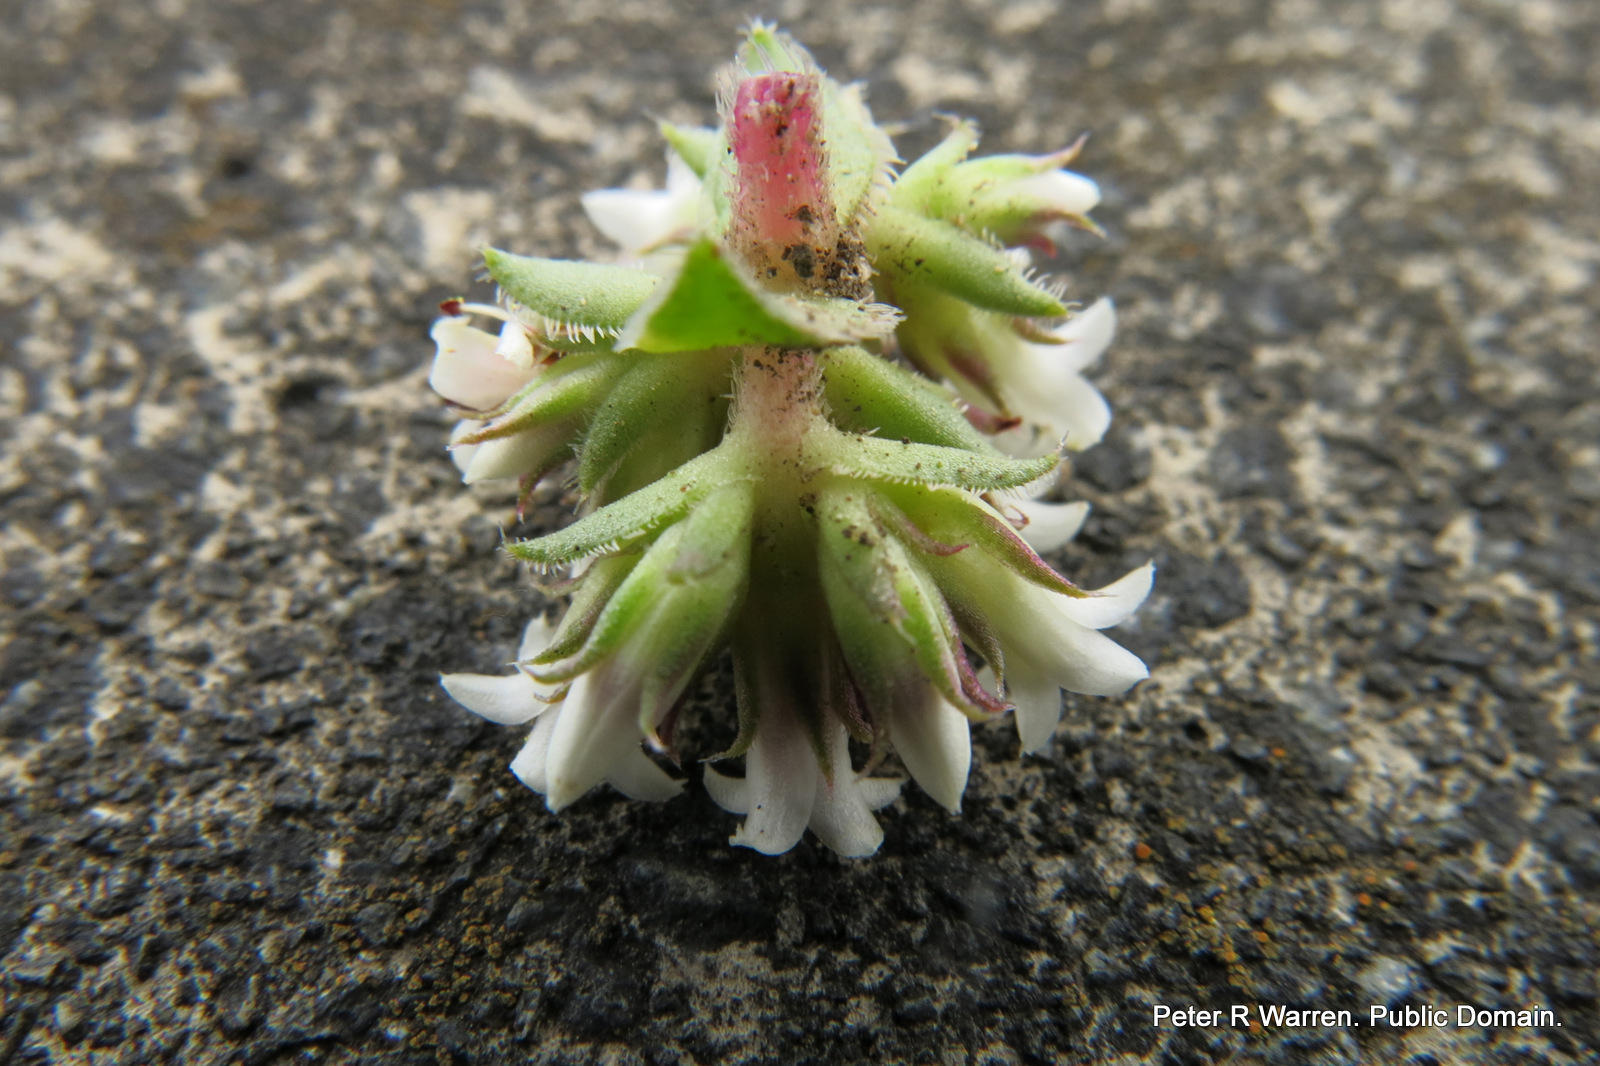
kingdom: Plantae
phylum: Tracheophyta
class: Magnoliopsida
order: Saxifragales
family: Crassulaceae
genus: Crassula
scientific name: Crassula obovata
